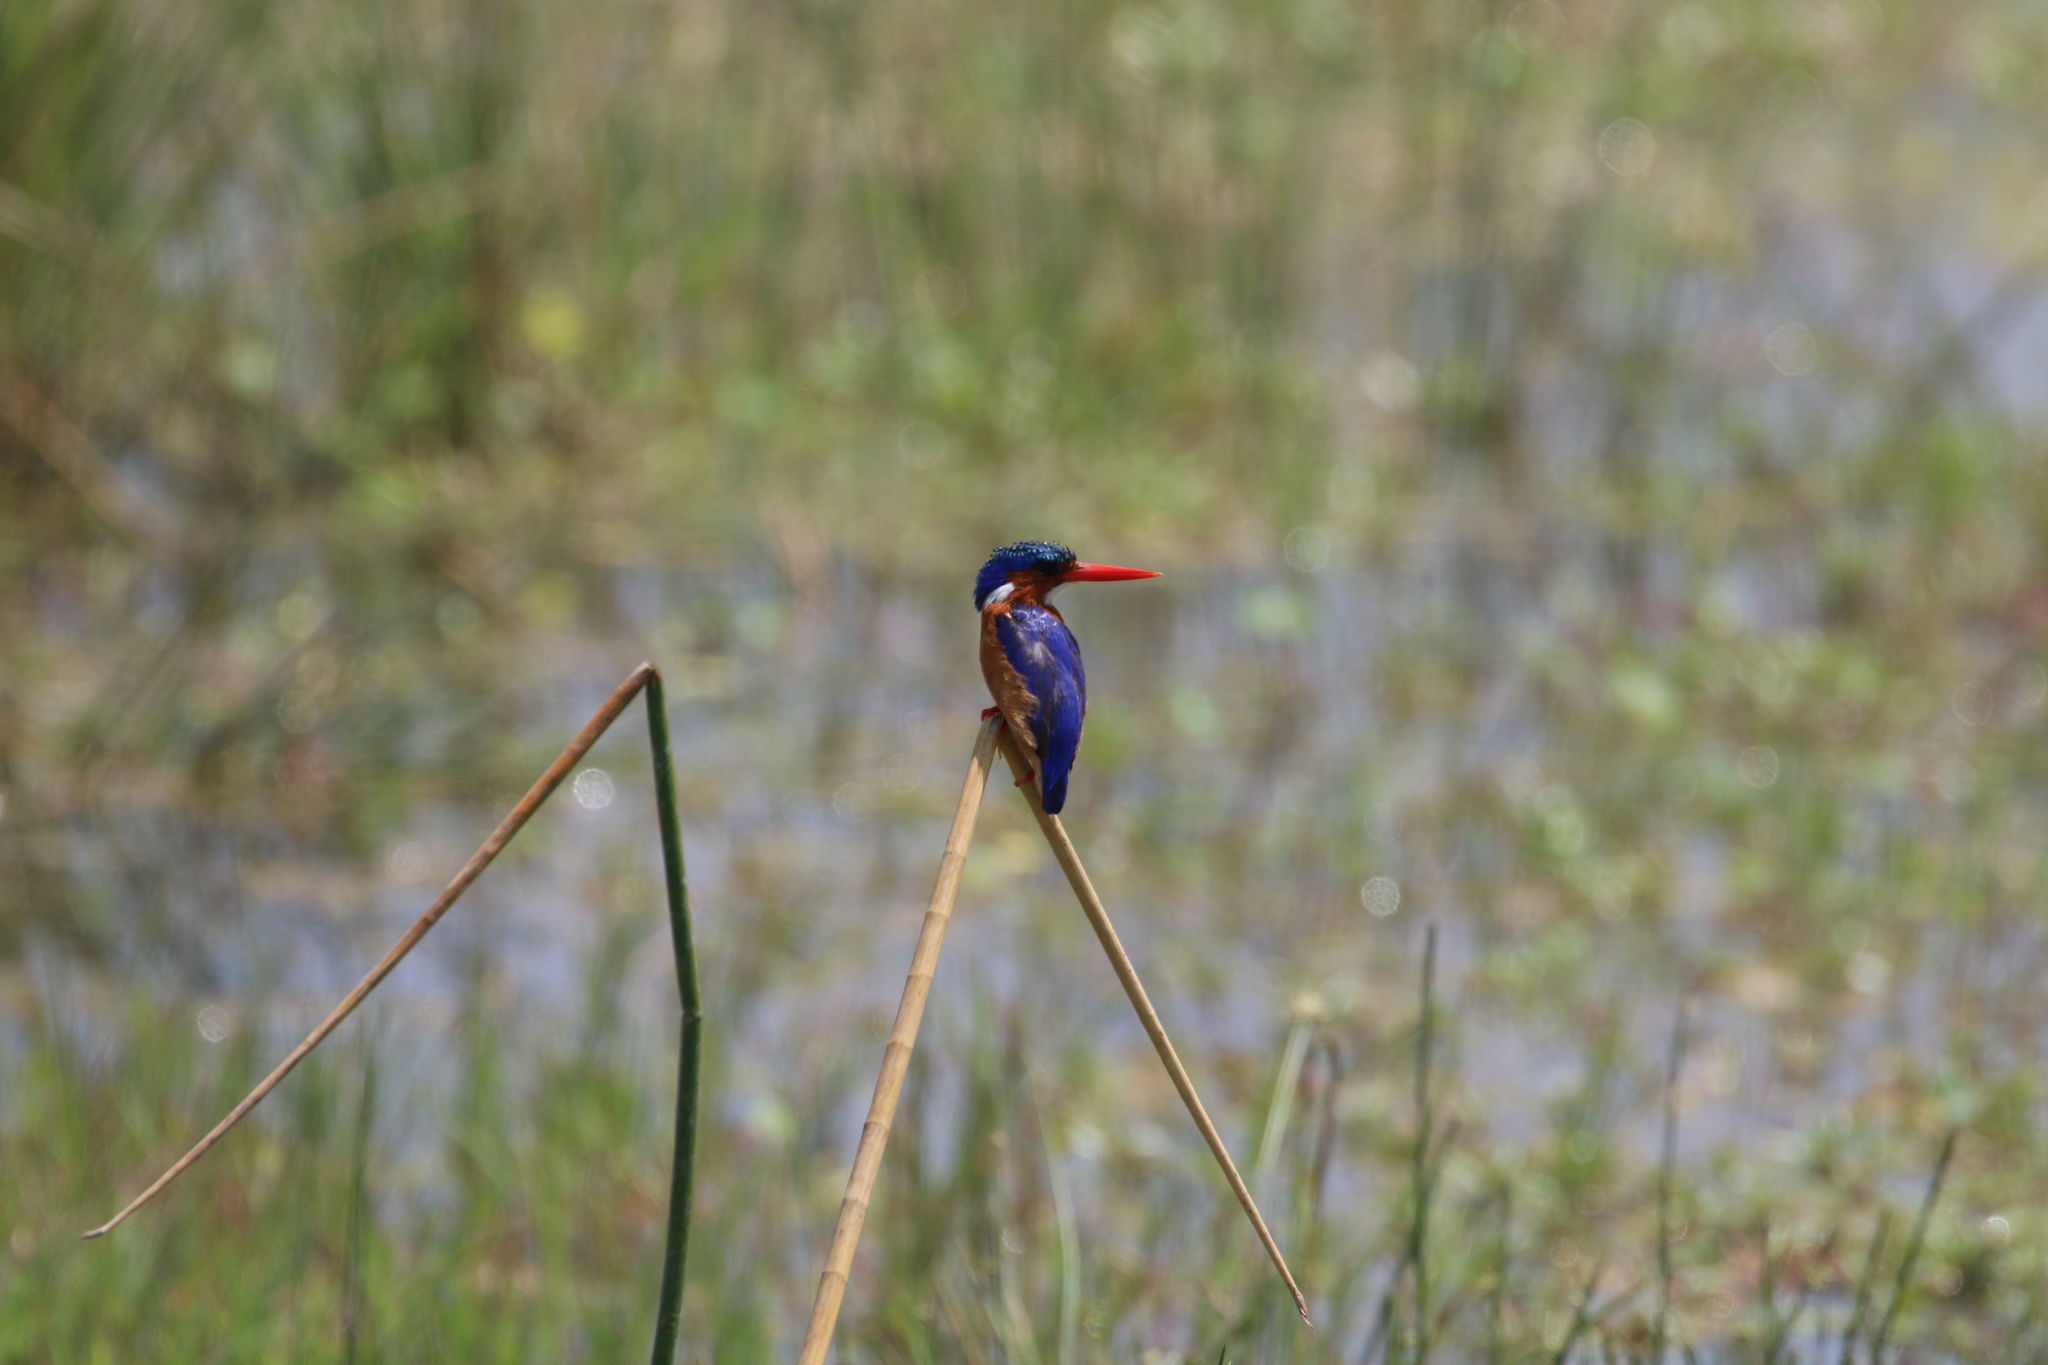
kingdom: Animalia
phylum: Chordata
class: Aves
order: Coraciiformes
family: Alcedinidae
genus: Corythornis
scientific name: Corythornis cristatus
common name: Malachite kingfisher
